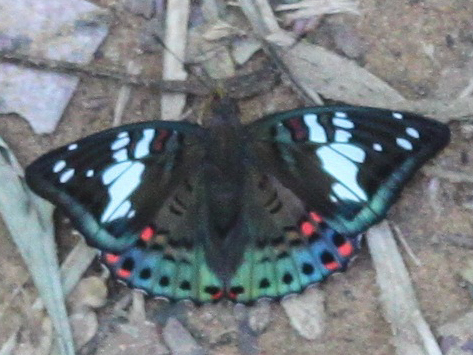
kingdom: Animalia
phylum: Arthropoda
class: Insecta
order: Lepidoptera
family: Nymphalidae
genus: Euthalia
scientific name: Euthalia lubentina
